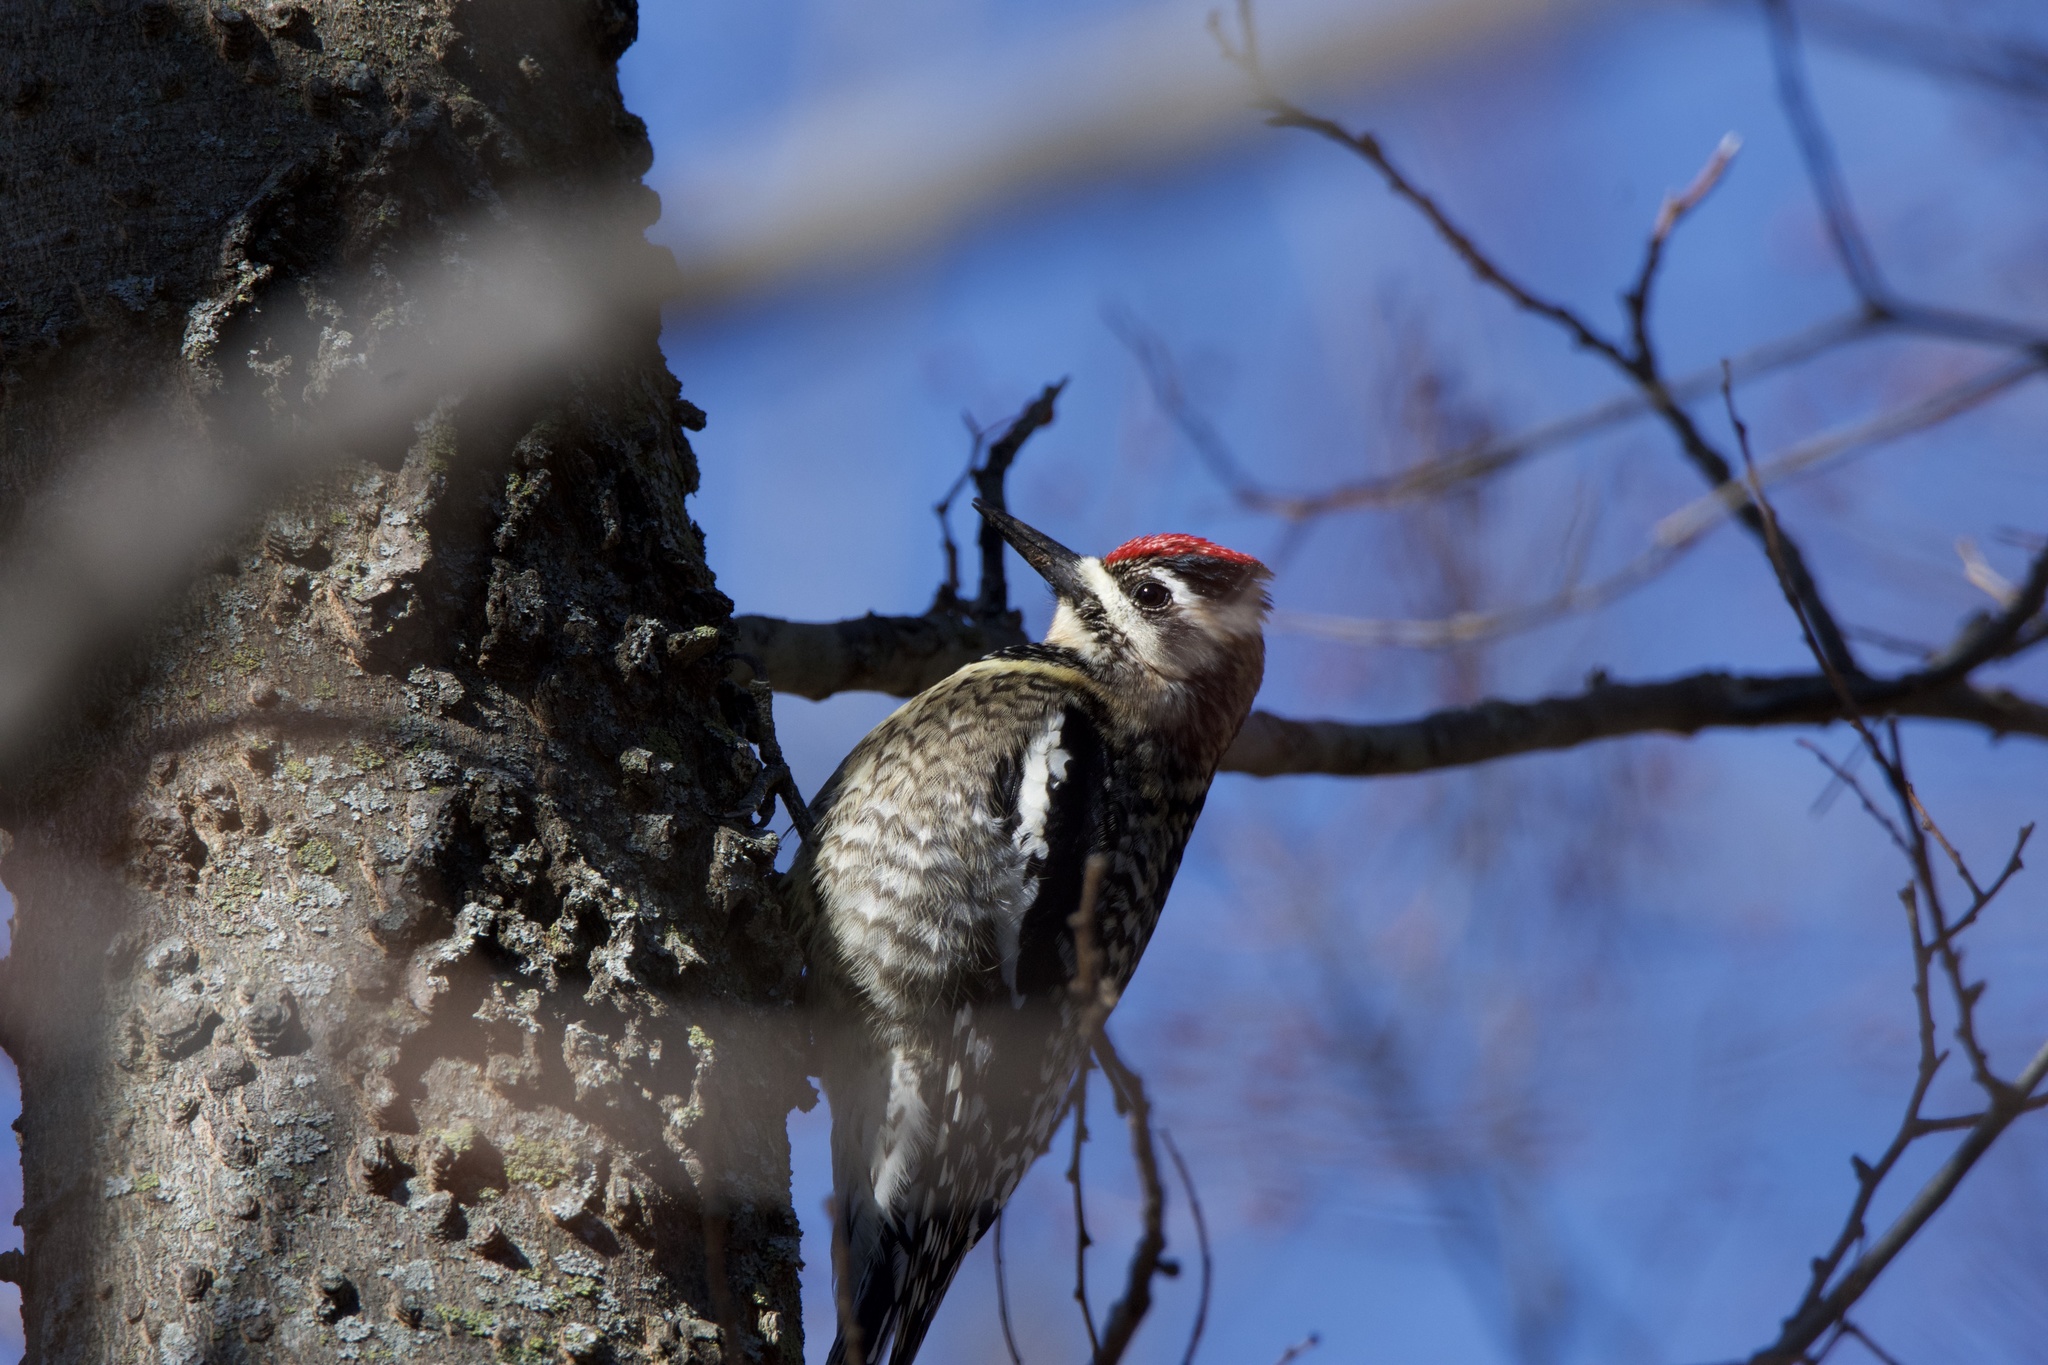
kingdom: Animalia
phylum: Chordata
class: Aves
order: Piciformes
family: Picidae
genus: Sphyrapicus
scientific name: Sphyrapicus varius
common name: Yellow-bellied sapsucker
